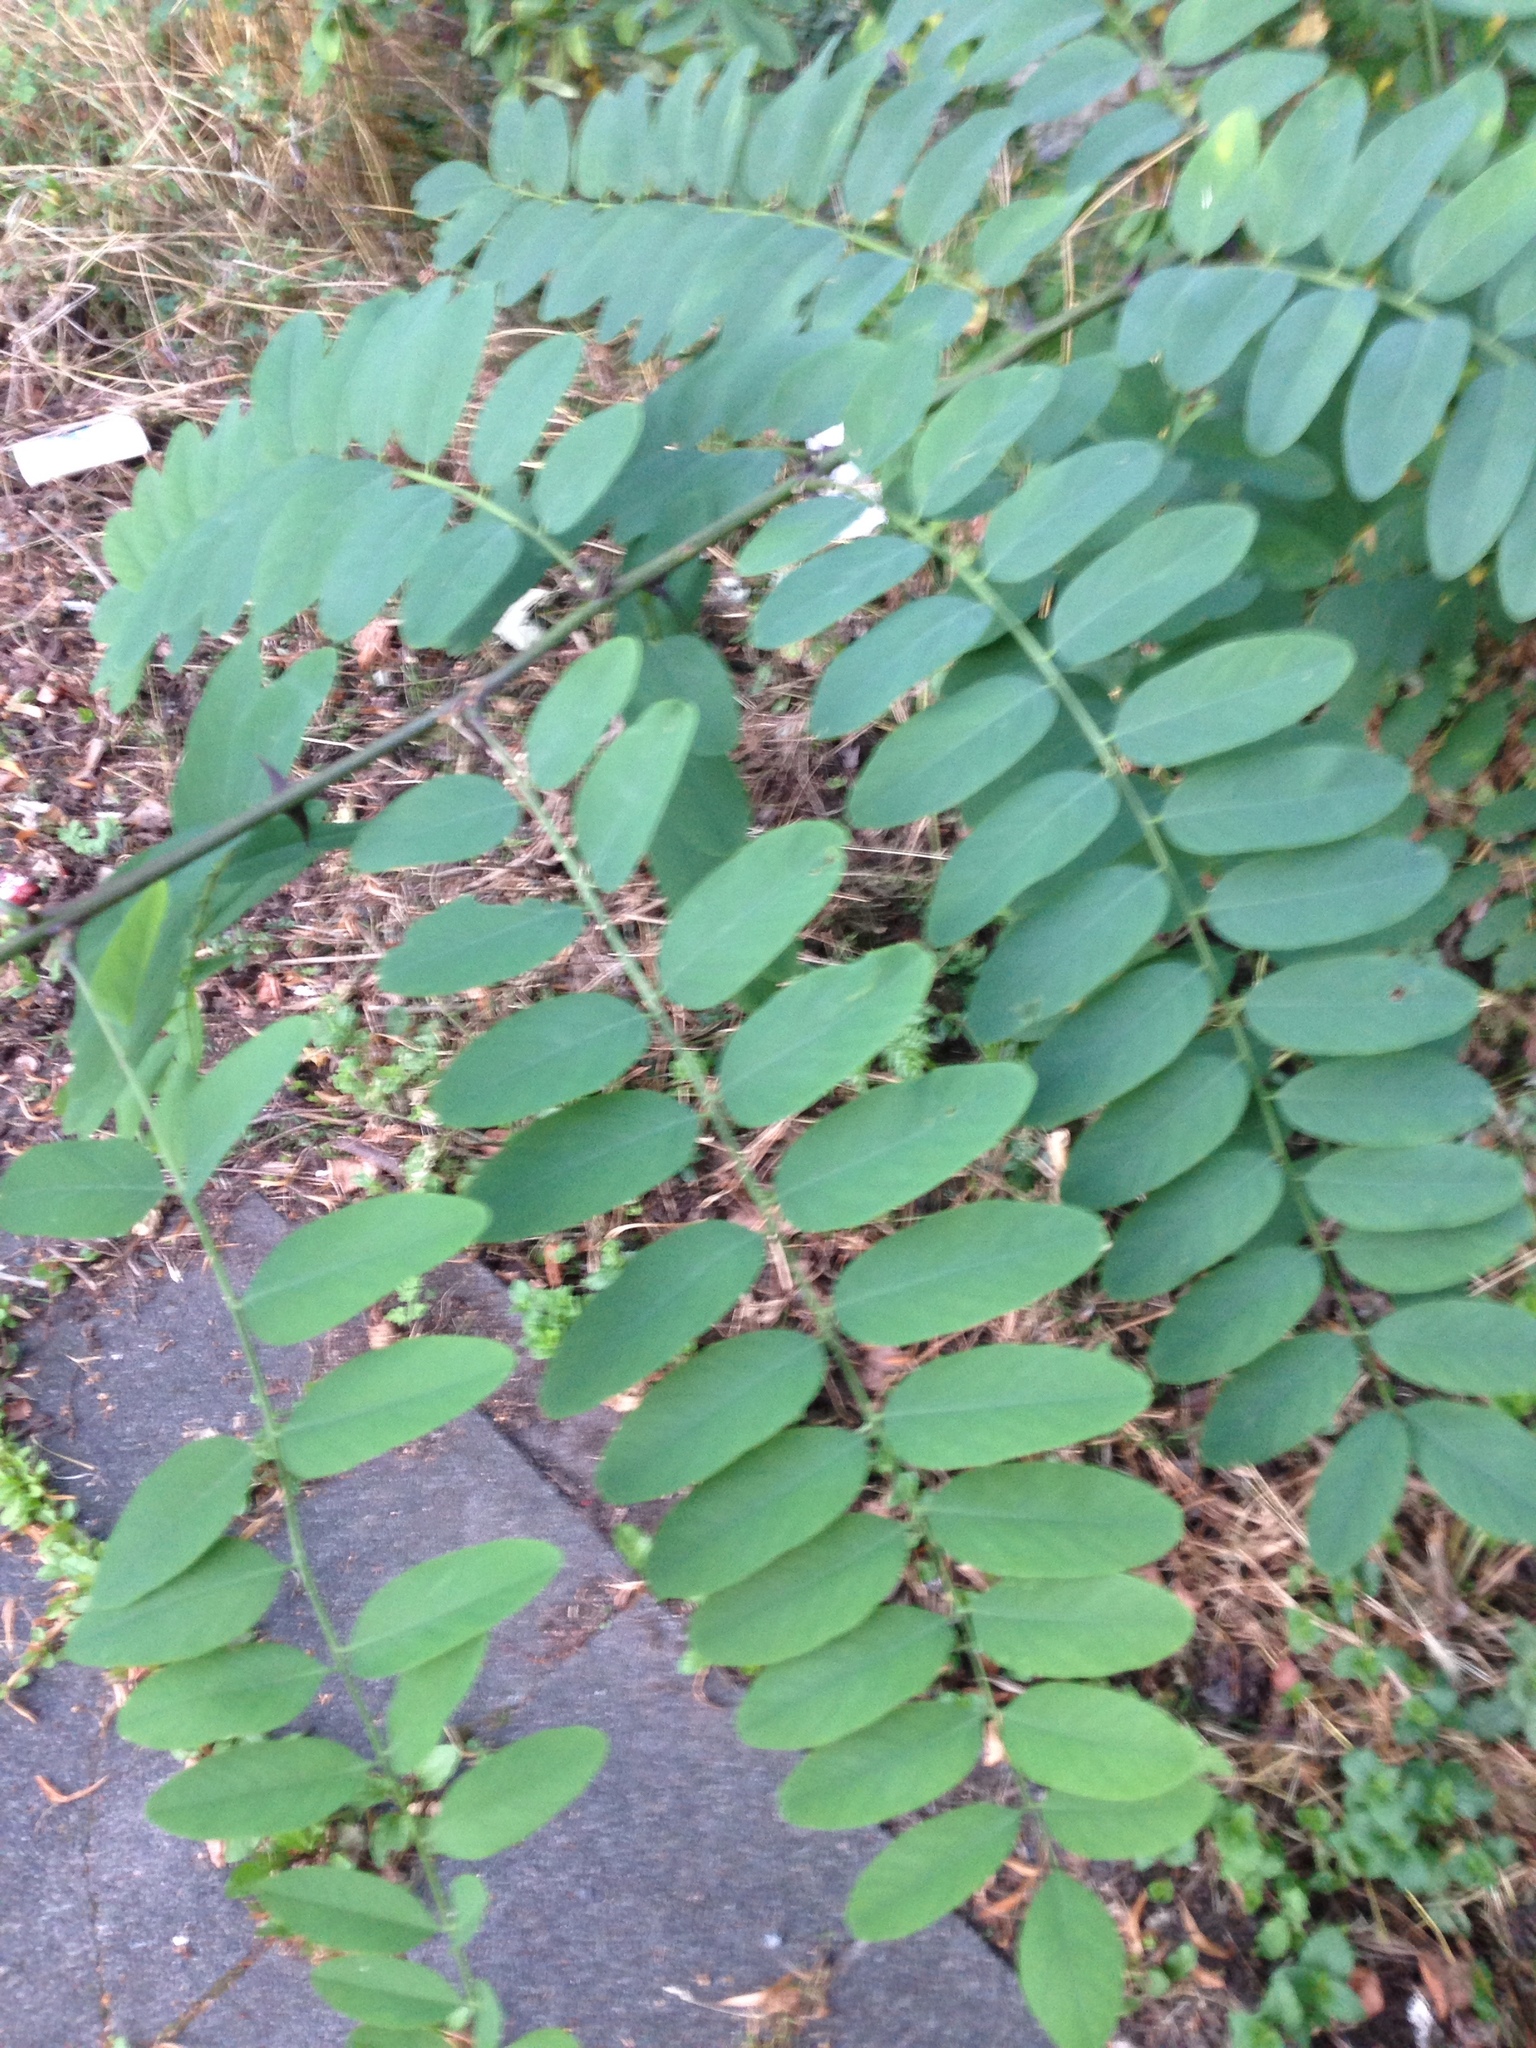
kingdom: Plantae
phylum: Tracheophyta
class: Magnoliopsida
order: Fabales
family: Fabaceae
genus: Robinia
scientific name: Robinia pseudoacacia
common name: Black locust
